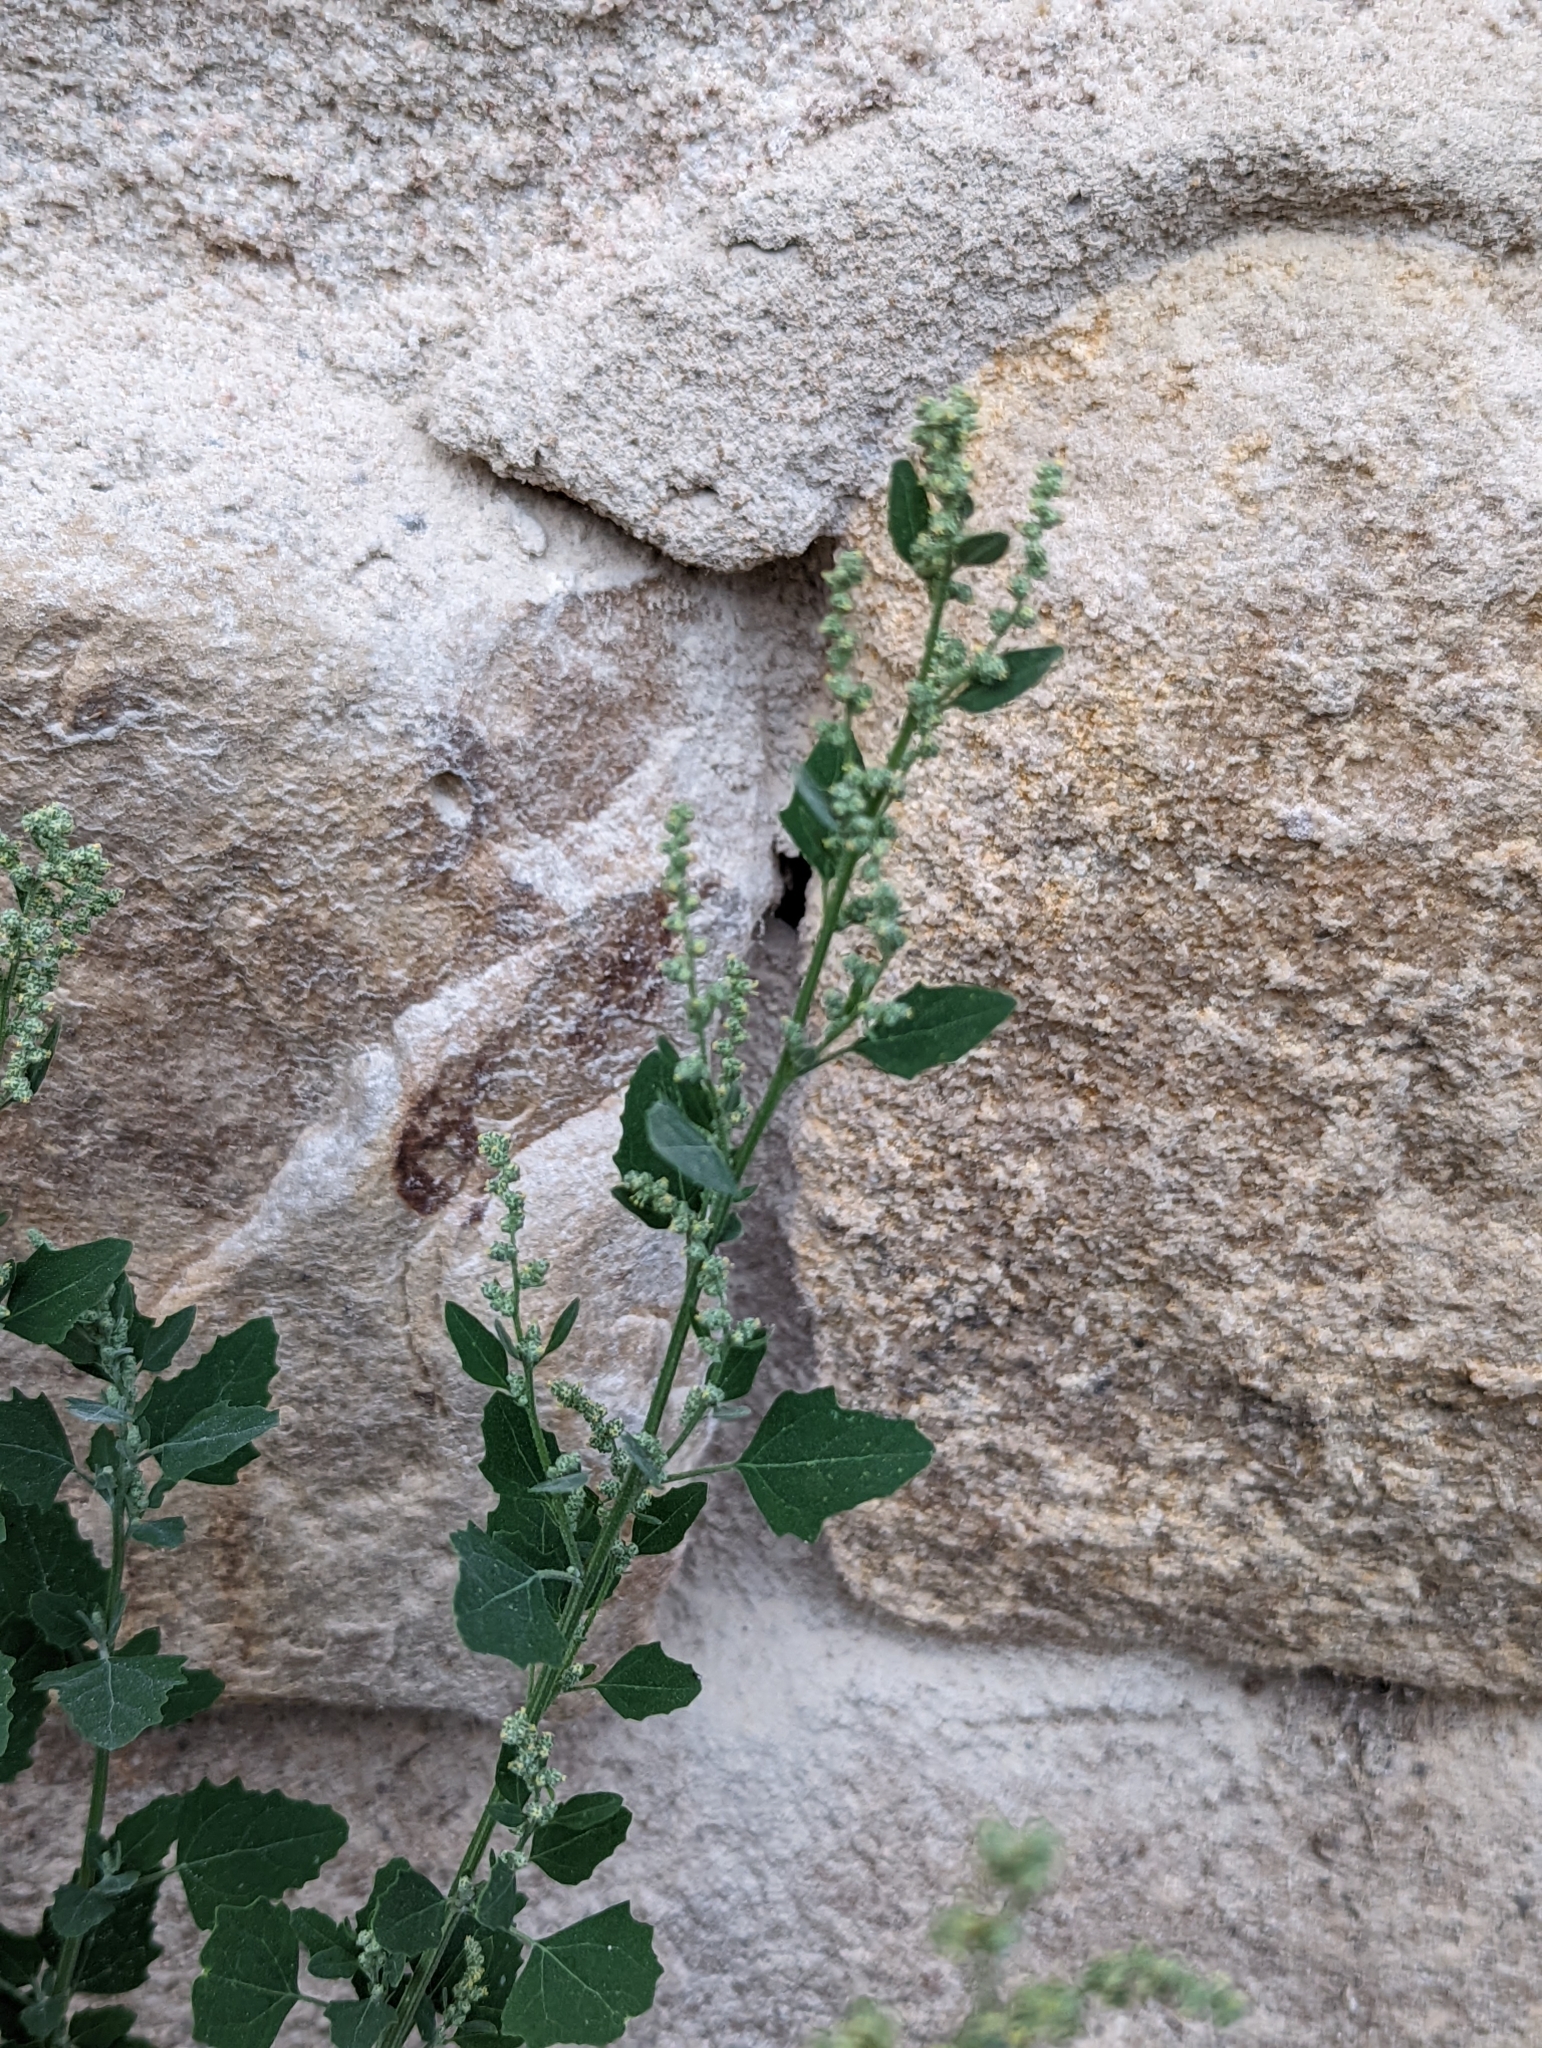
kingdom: Plantae
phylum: Tracheophyta
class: Magnoliopsida
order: Caryophyllales
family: Amaranthaceae
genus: Chenopodium
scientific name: Chenopodium album
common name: Fat-hen
